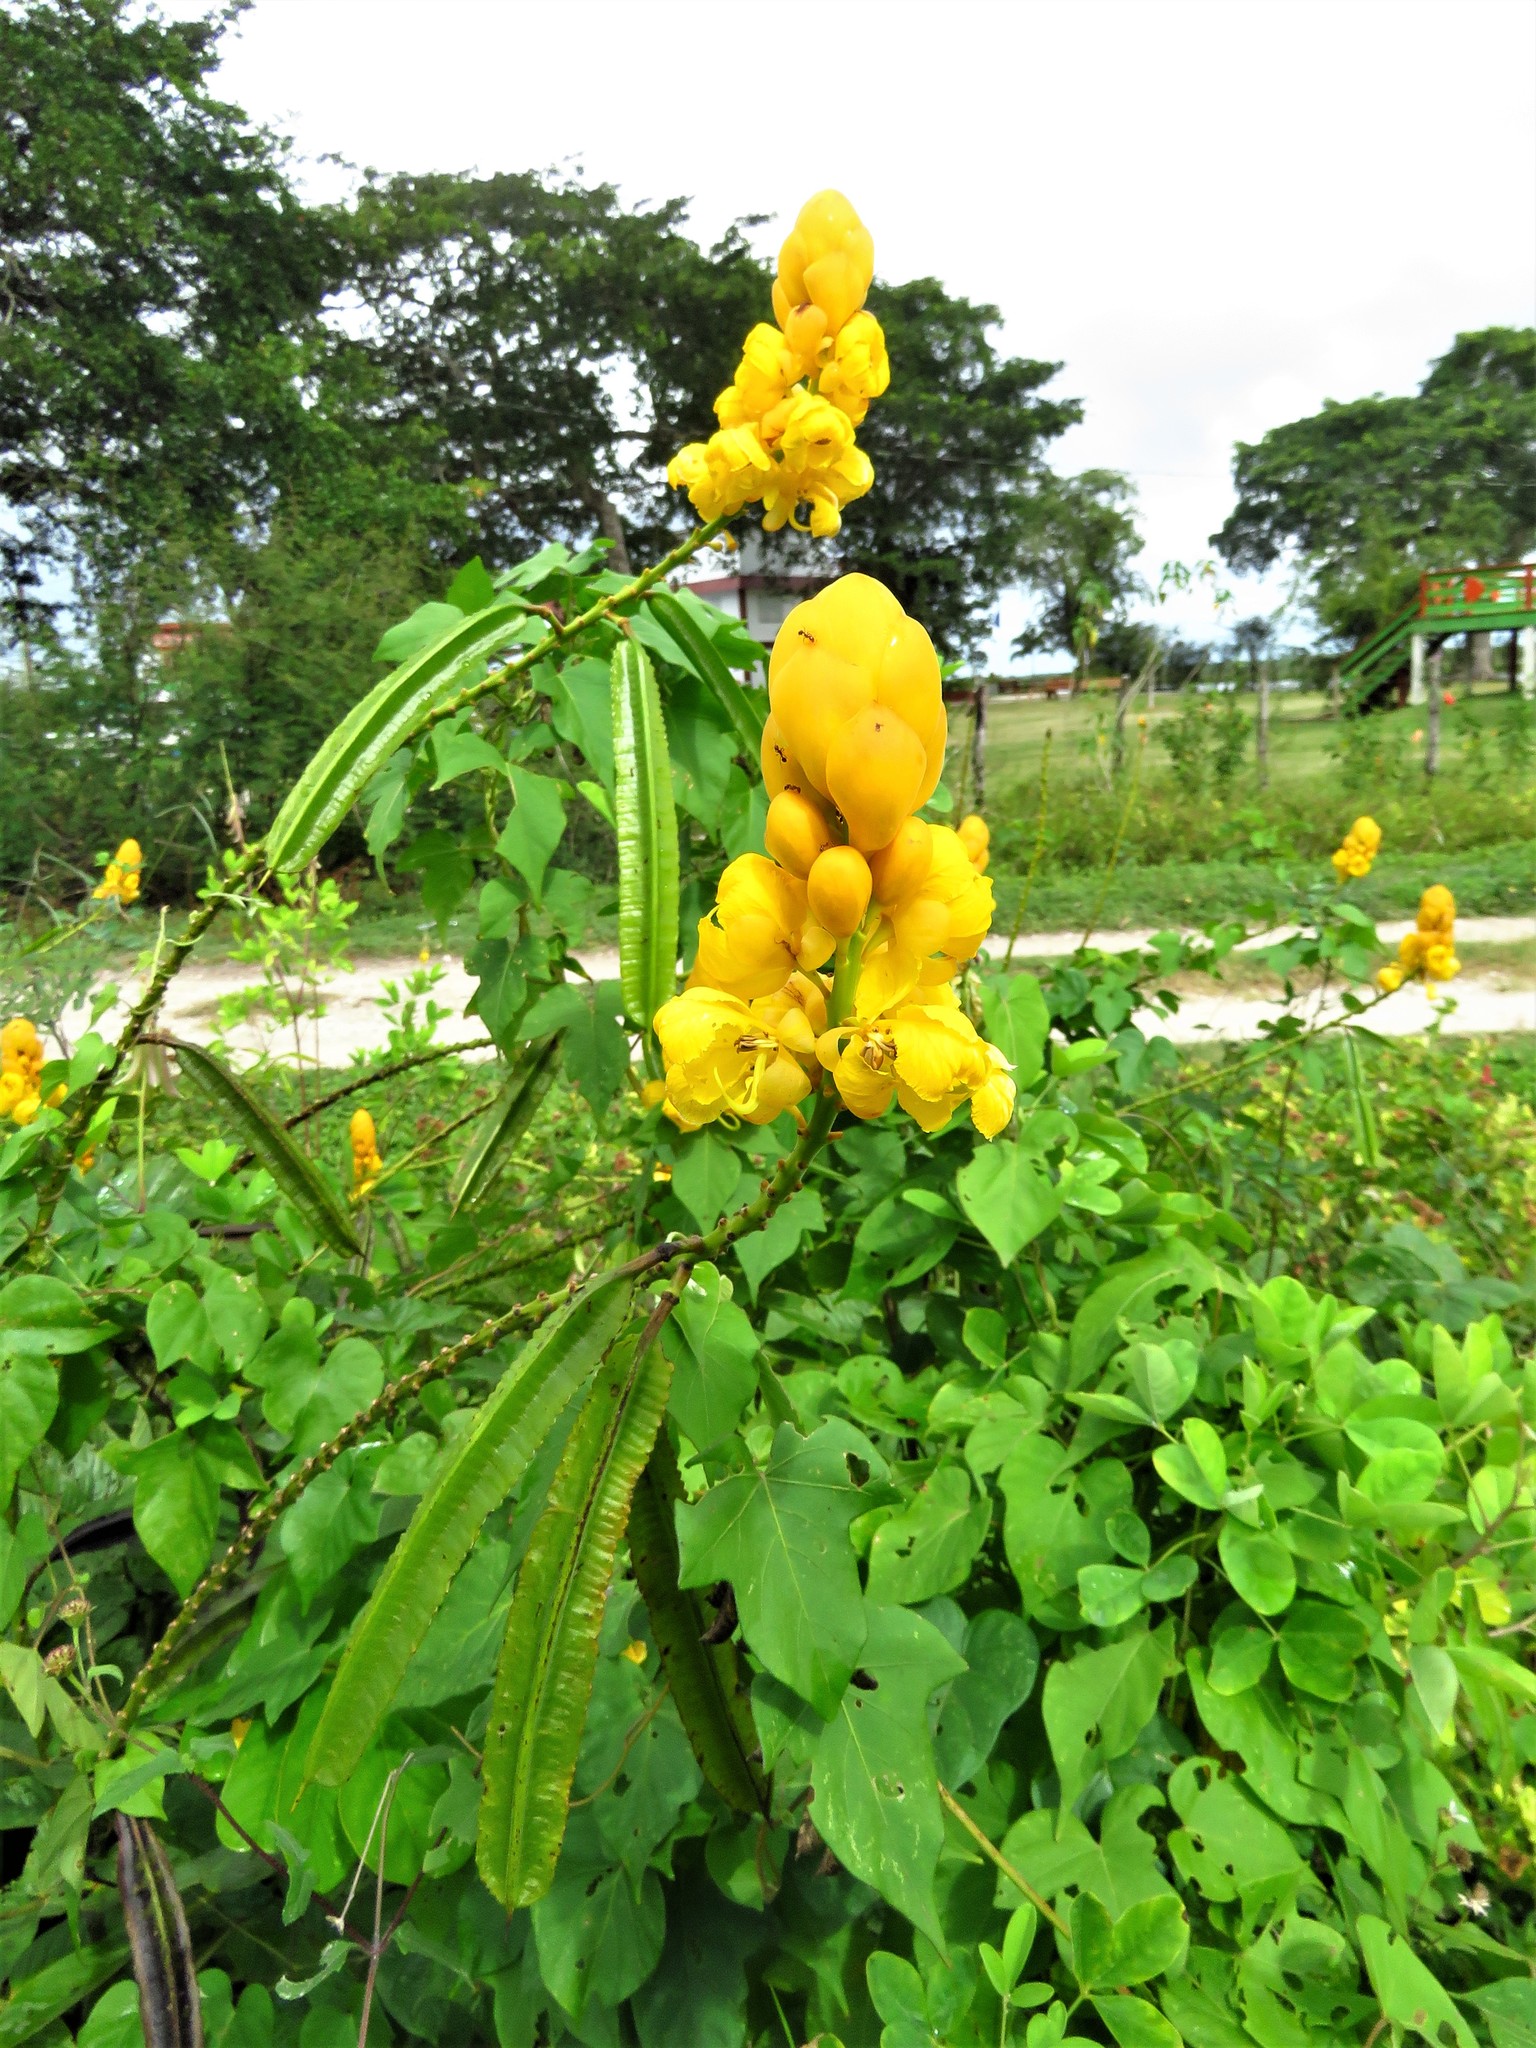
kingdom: Plantae
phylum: Tracheophyta
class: Magnoliopsida
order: Fabales
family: Fabaceae
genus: Senna
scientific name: Senna alata
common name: Emperor's candlesticks
